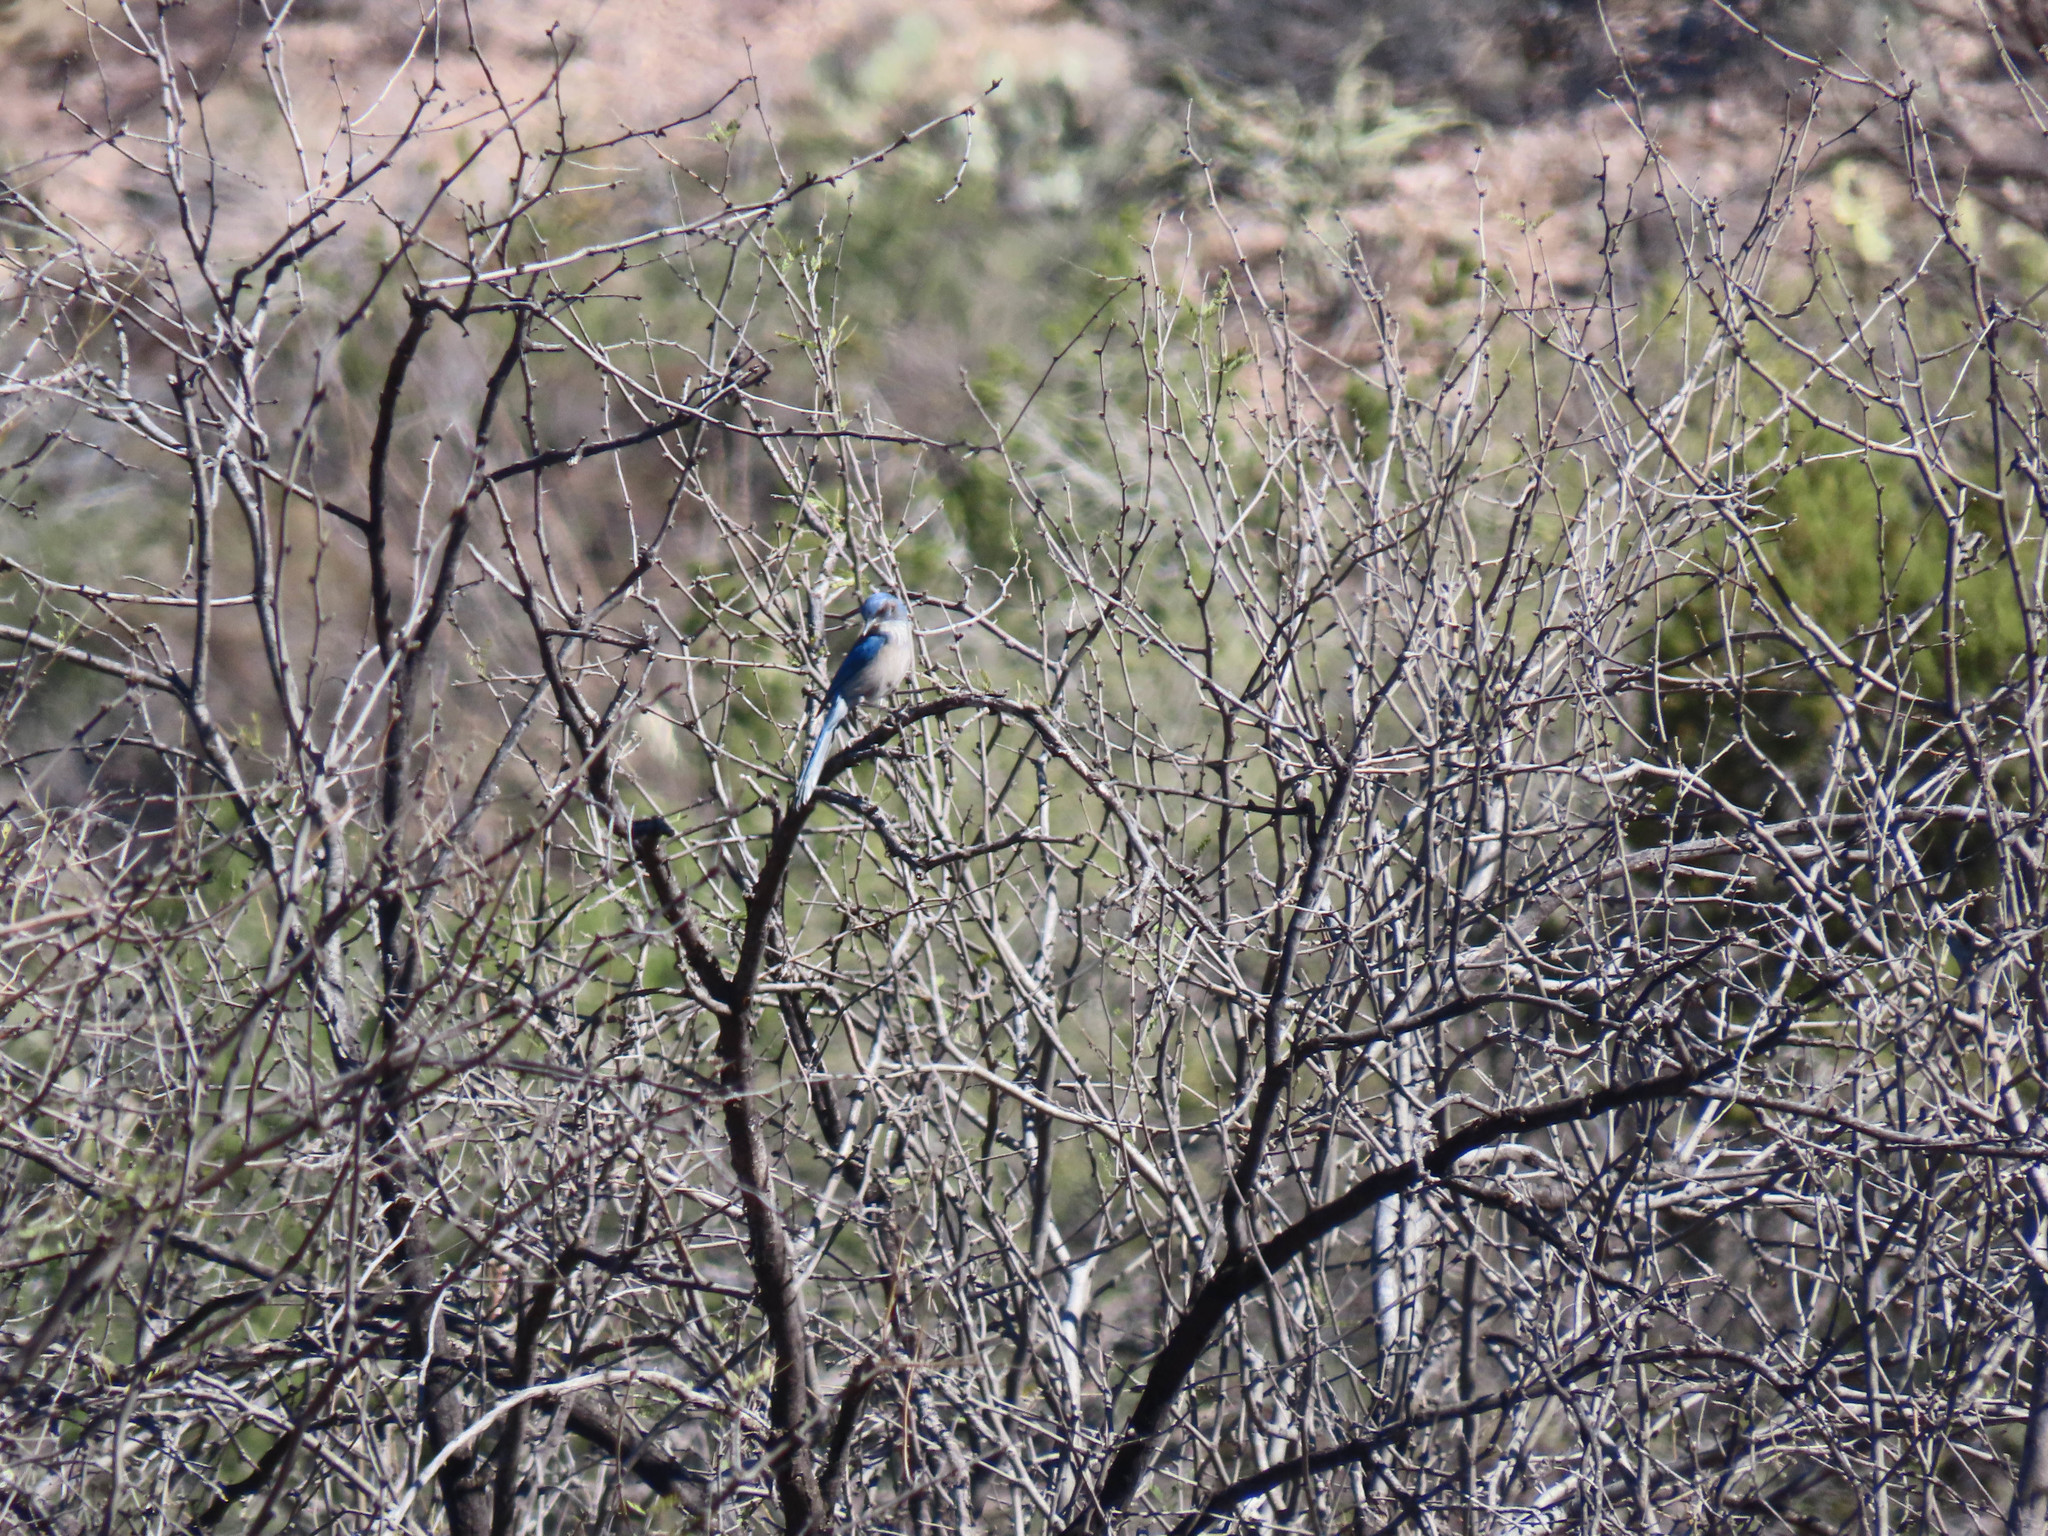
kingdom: Animalia
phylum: Chordata
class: Aves
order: Passeriformes
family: Corvidae
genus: Aphelocoma
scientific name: Aphelocoma woodhouseii
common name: Woodhouse's scrub-jay
